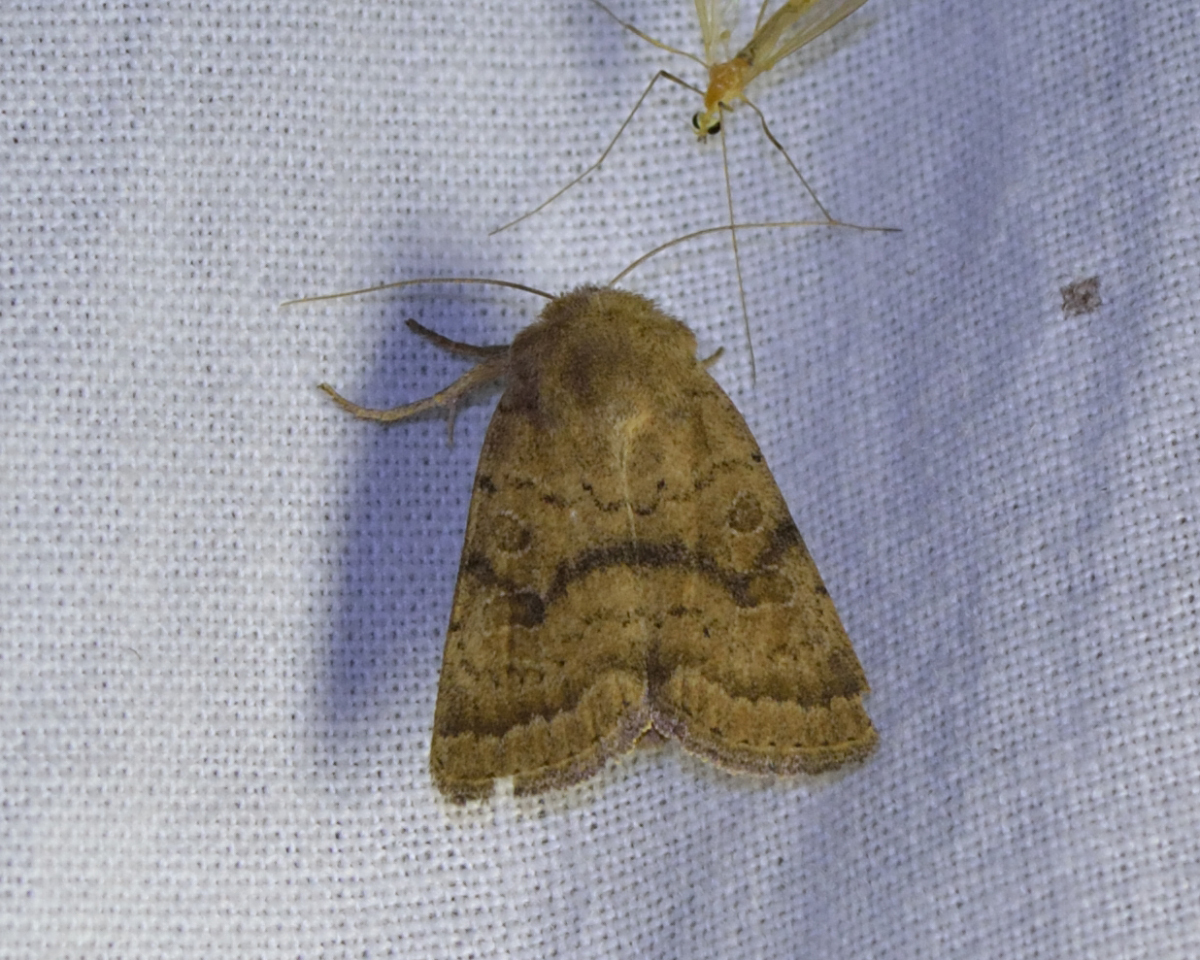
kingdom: Animalia
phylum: Arthropoda
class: Insecta
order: Lepidoptera
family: Noctuidae
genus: Hoplodrina
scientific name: Hoplodrina octogenaria
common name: Uncertain
